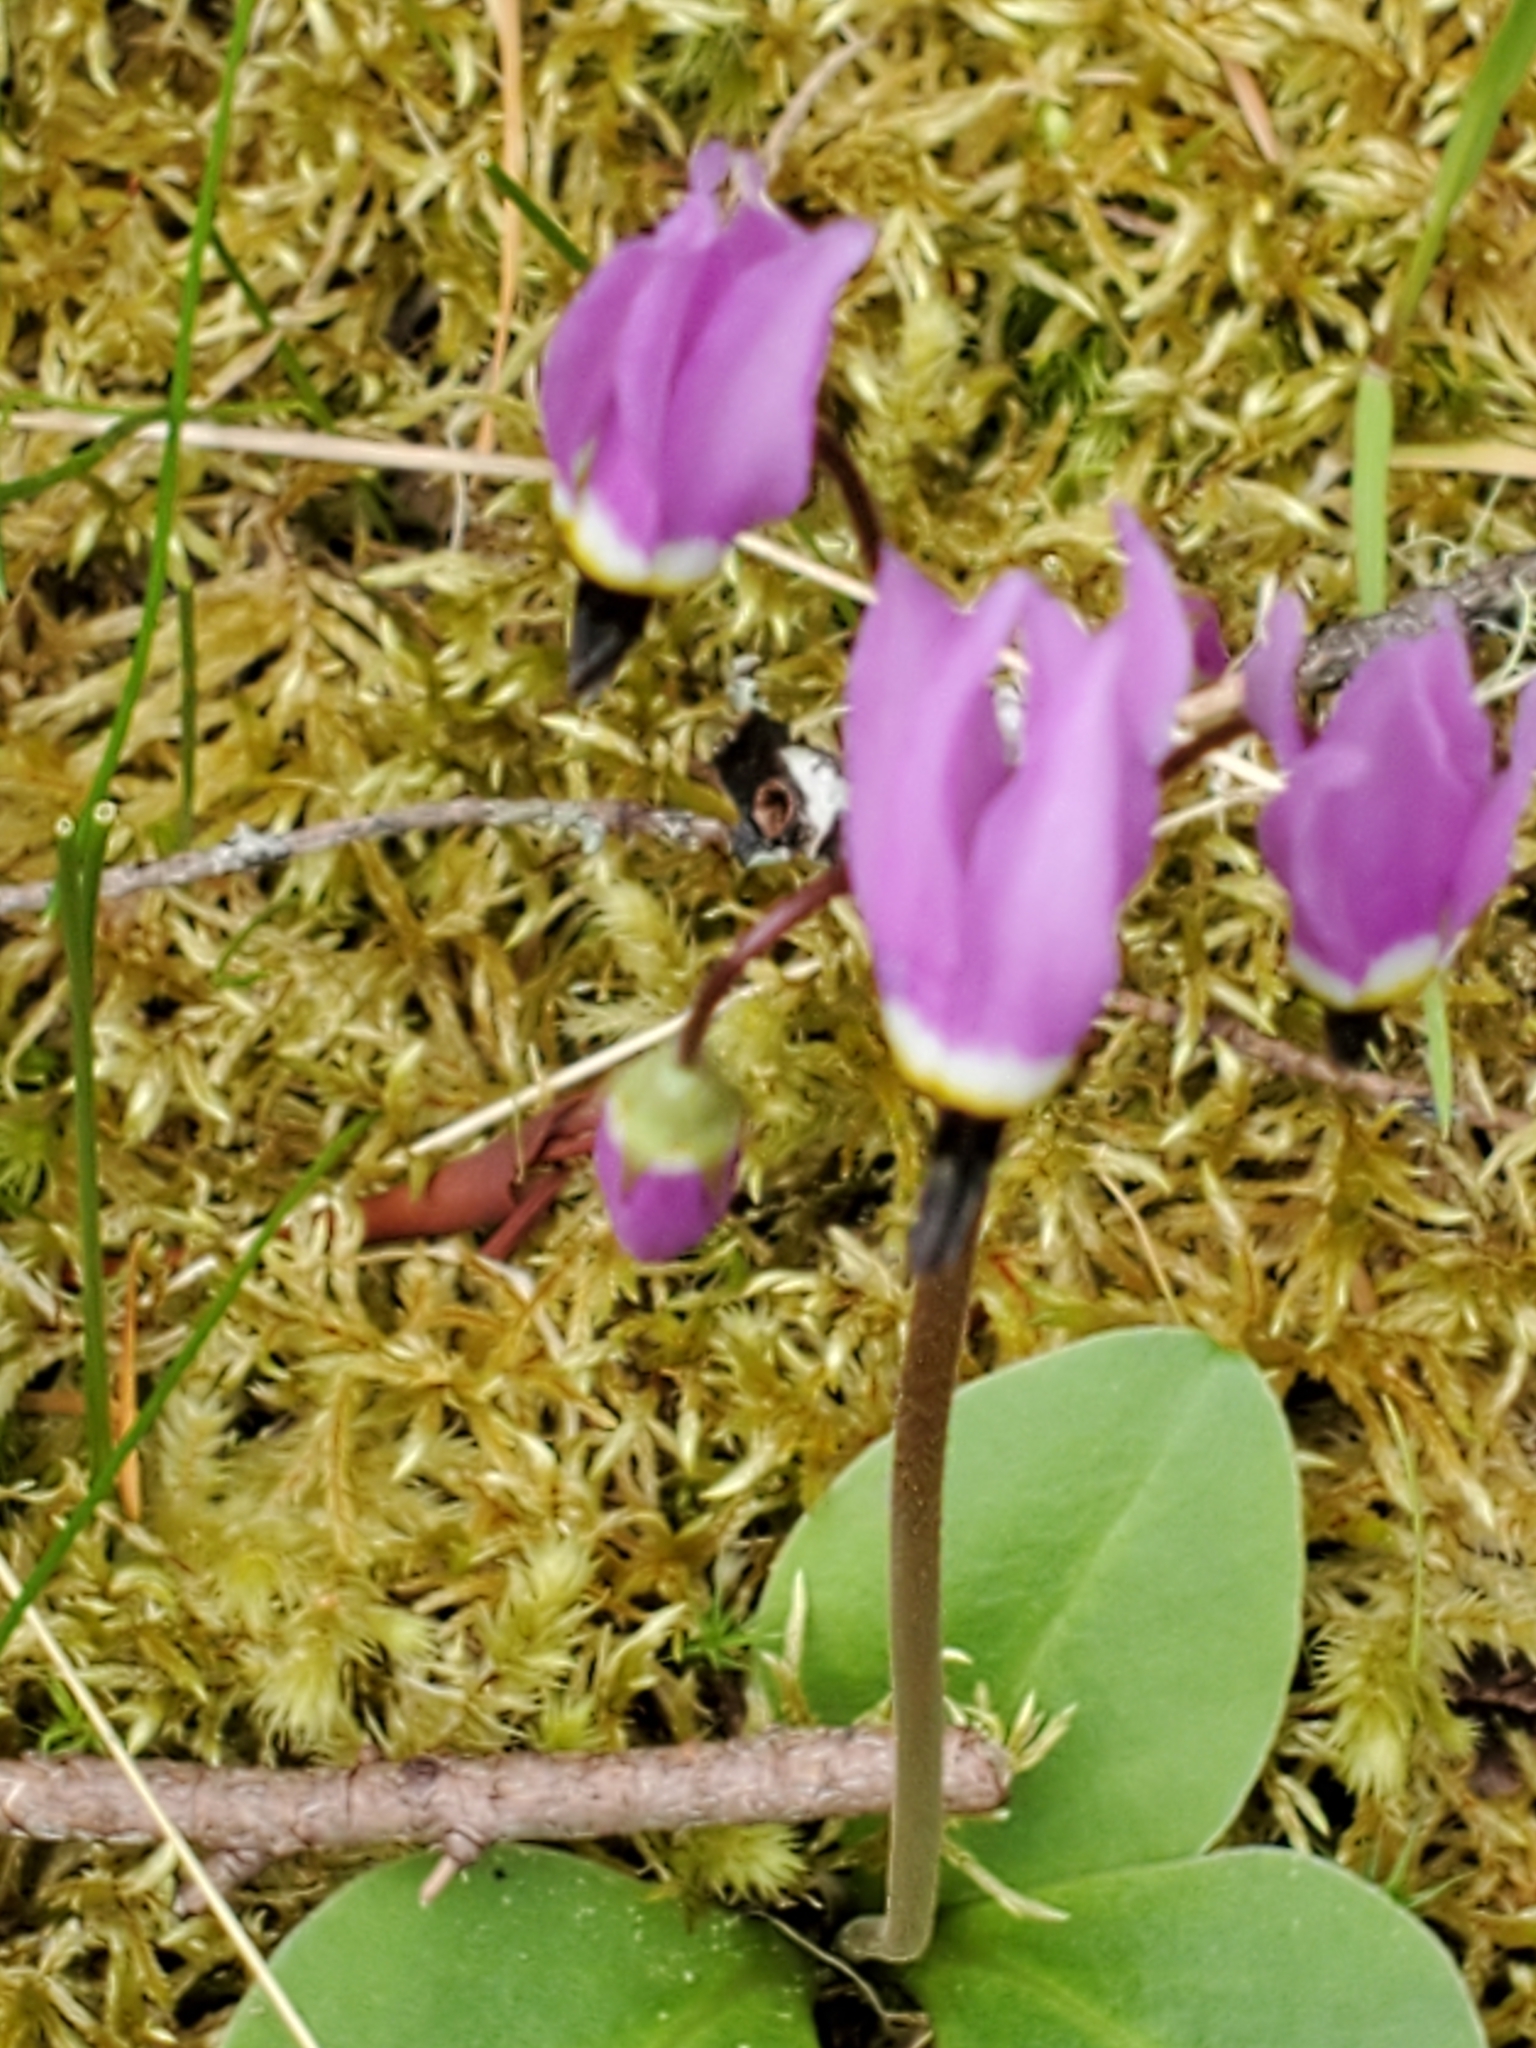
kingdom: Plantae
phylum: Tracheophyta
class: Magnoliopsida
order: Ericales
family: Primulaceae
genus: Dodecatheon
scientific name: Dodecatheon hendersonii
